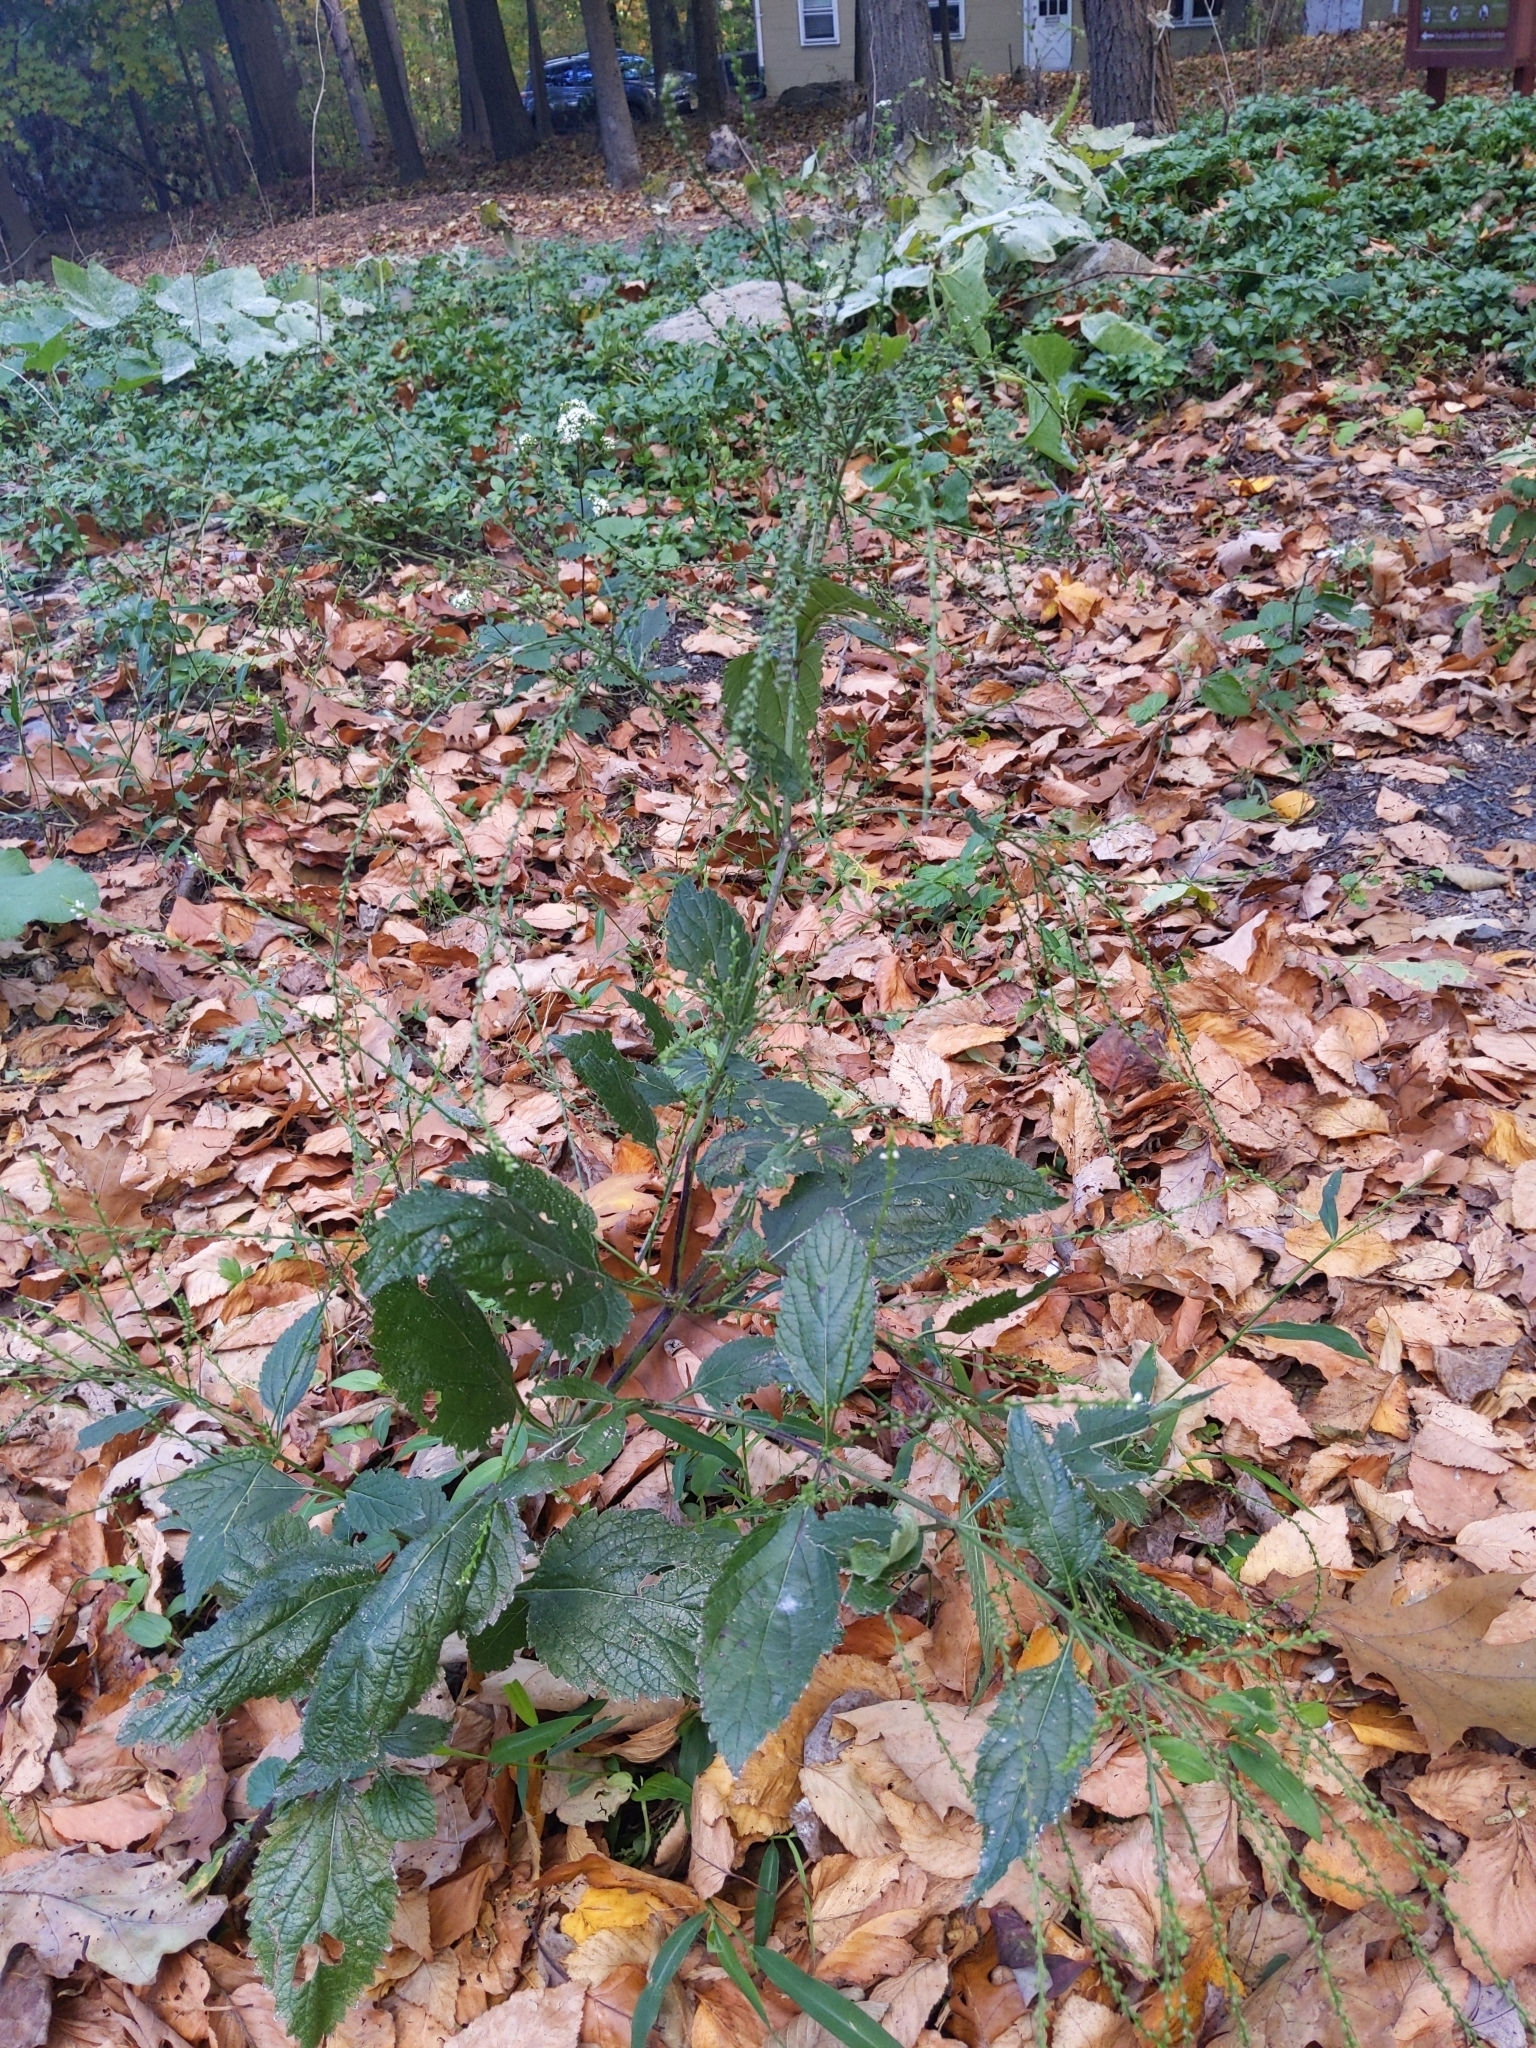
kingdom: Plantae
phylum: Tracheophyta
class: Magnoliopsida
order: Lamiales
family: Verbenaceae
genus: Verbena
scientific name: Verbena urticifolia
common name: Nettle-leaved vervain
